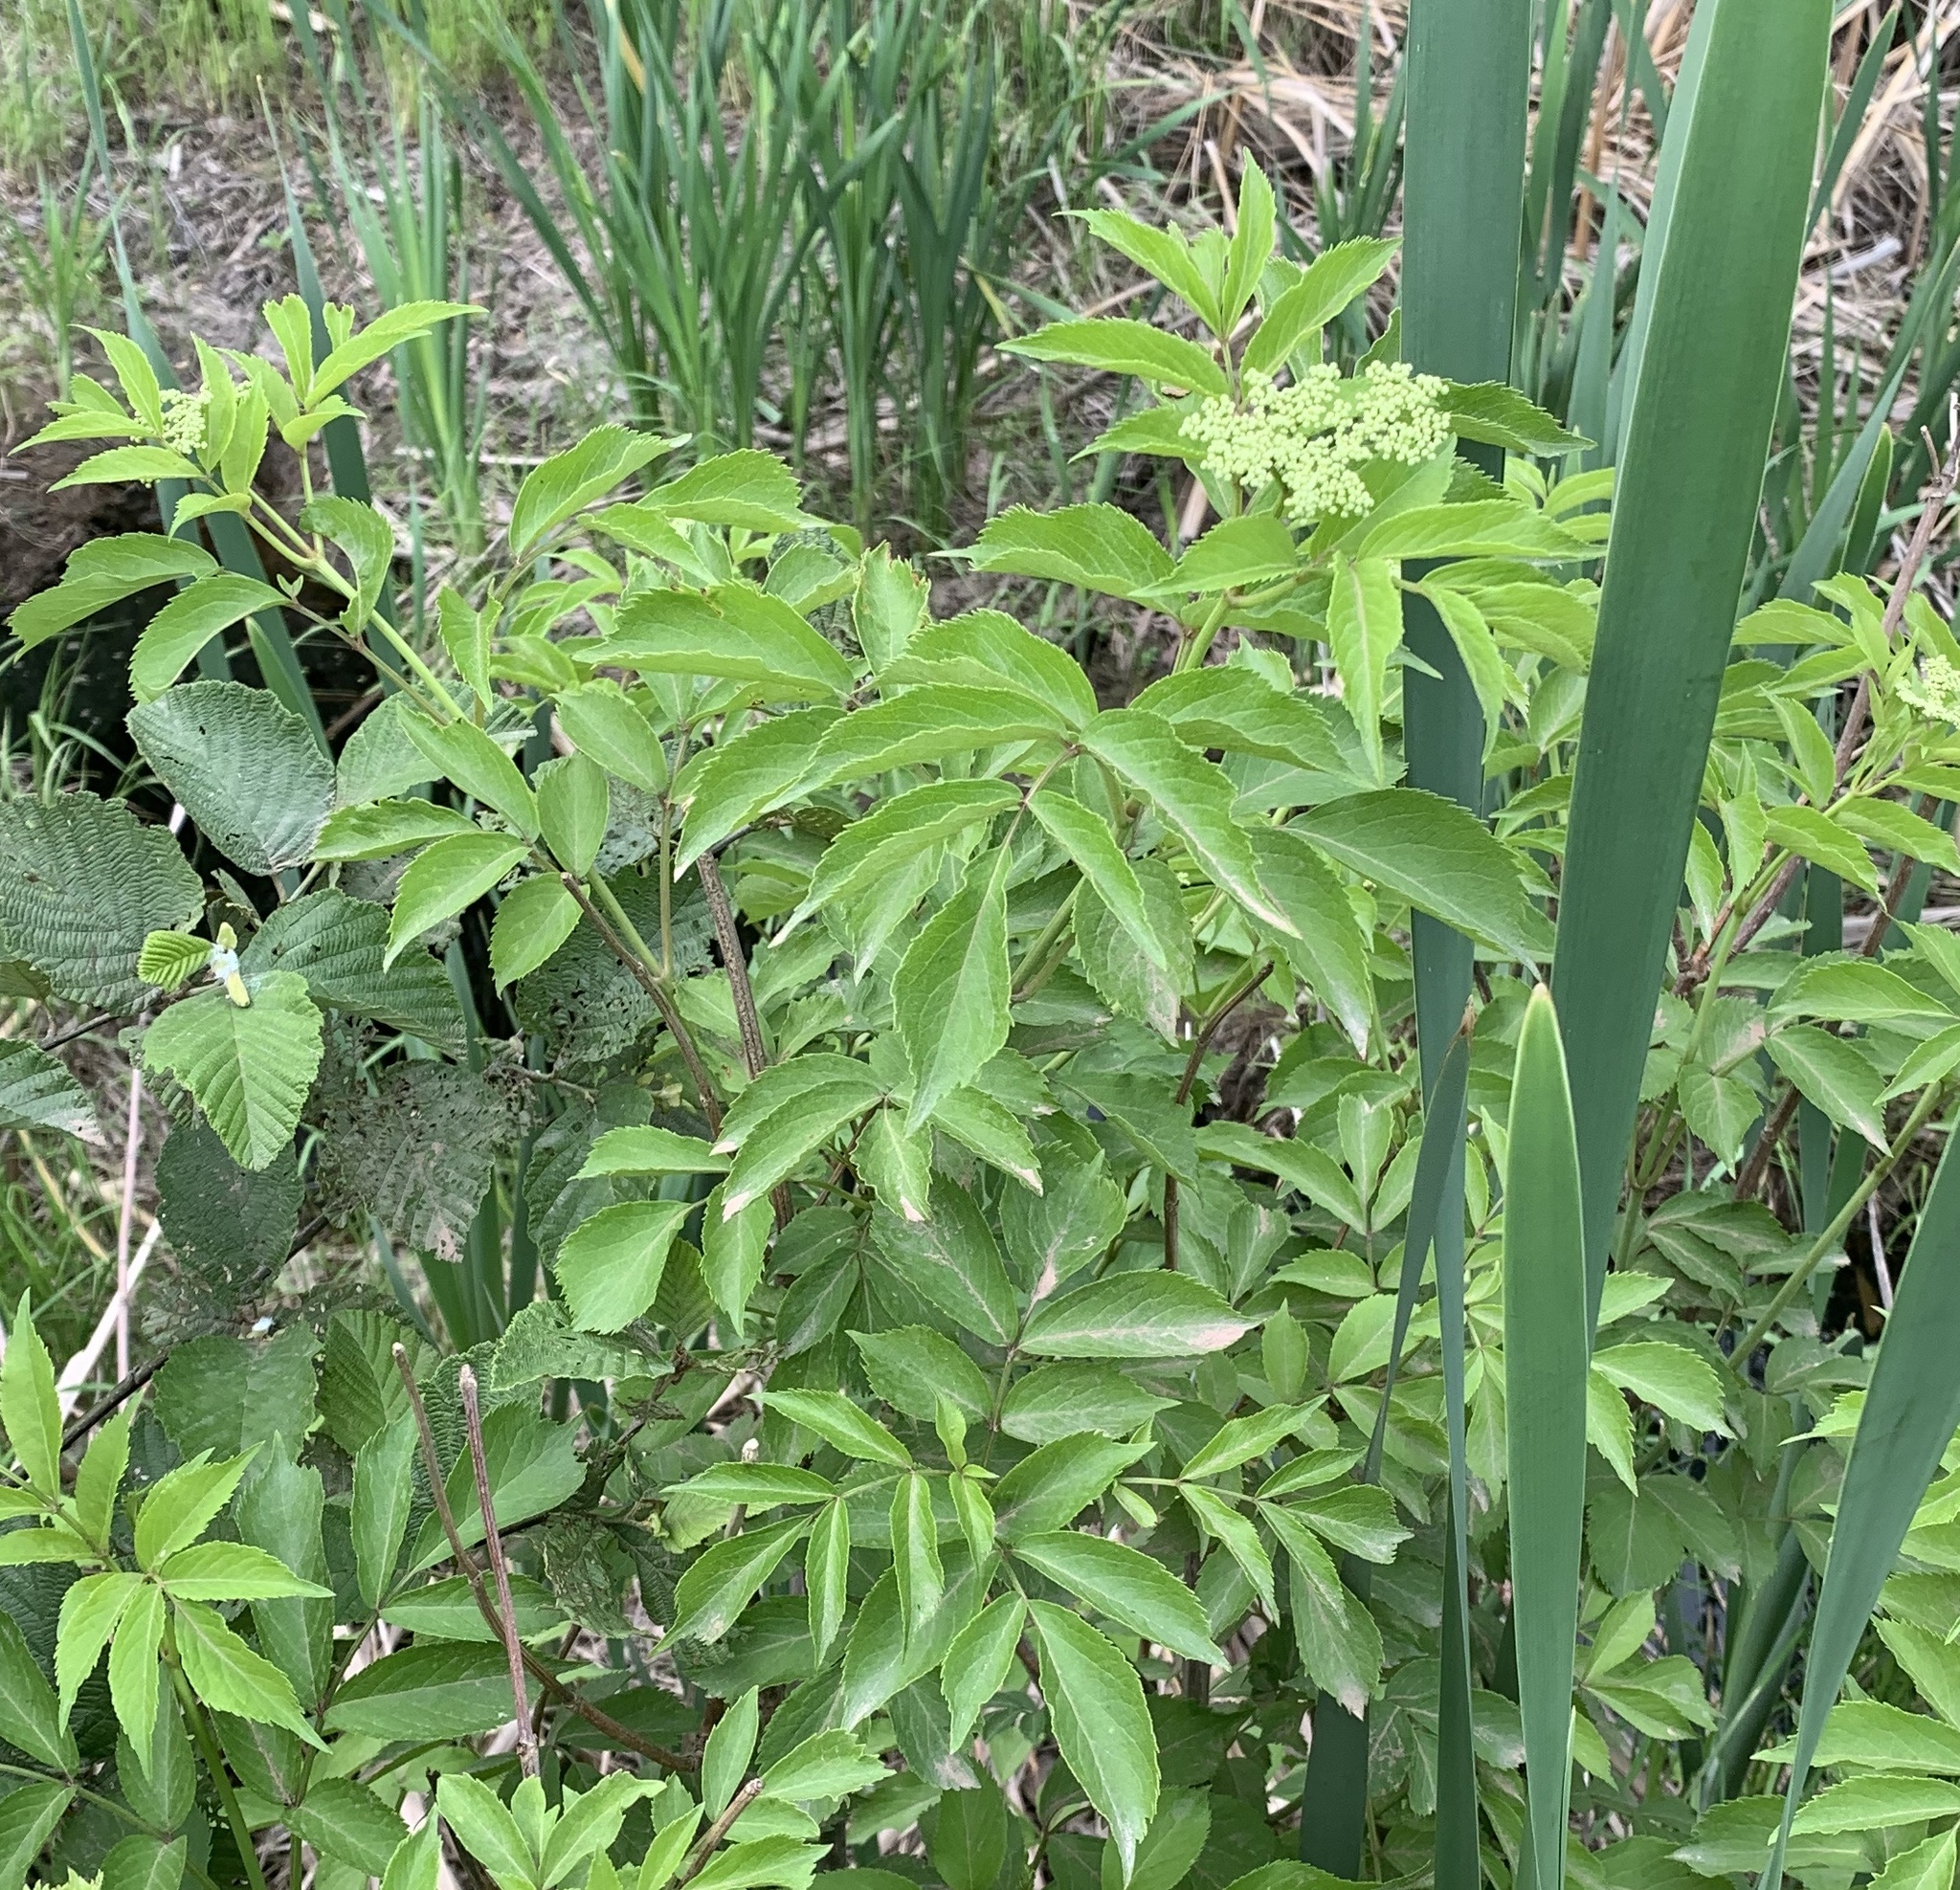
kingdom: Plantae
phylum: Tracheophyta
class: Magnoliopsida
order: Dipsacales
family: Viburnaceae
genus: Sambucus
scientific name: Sambucus canadensis
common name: American elder
